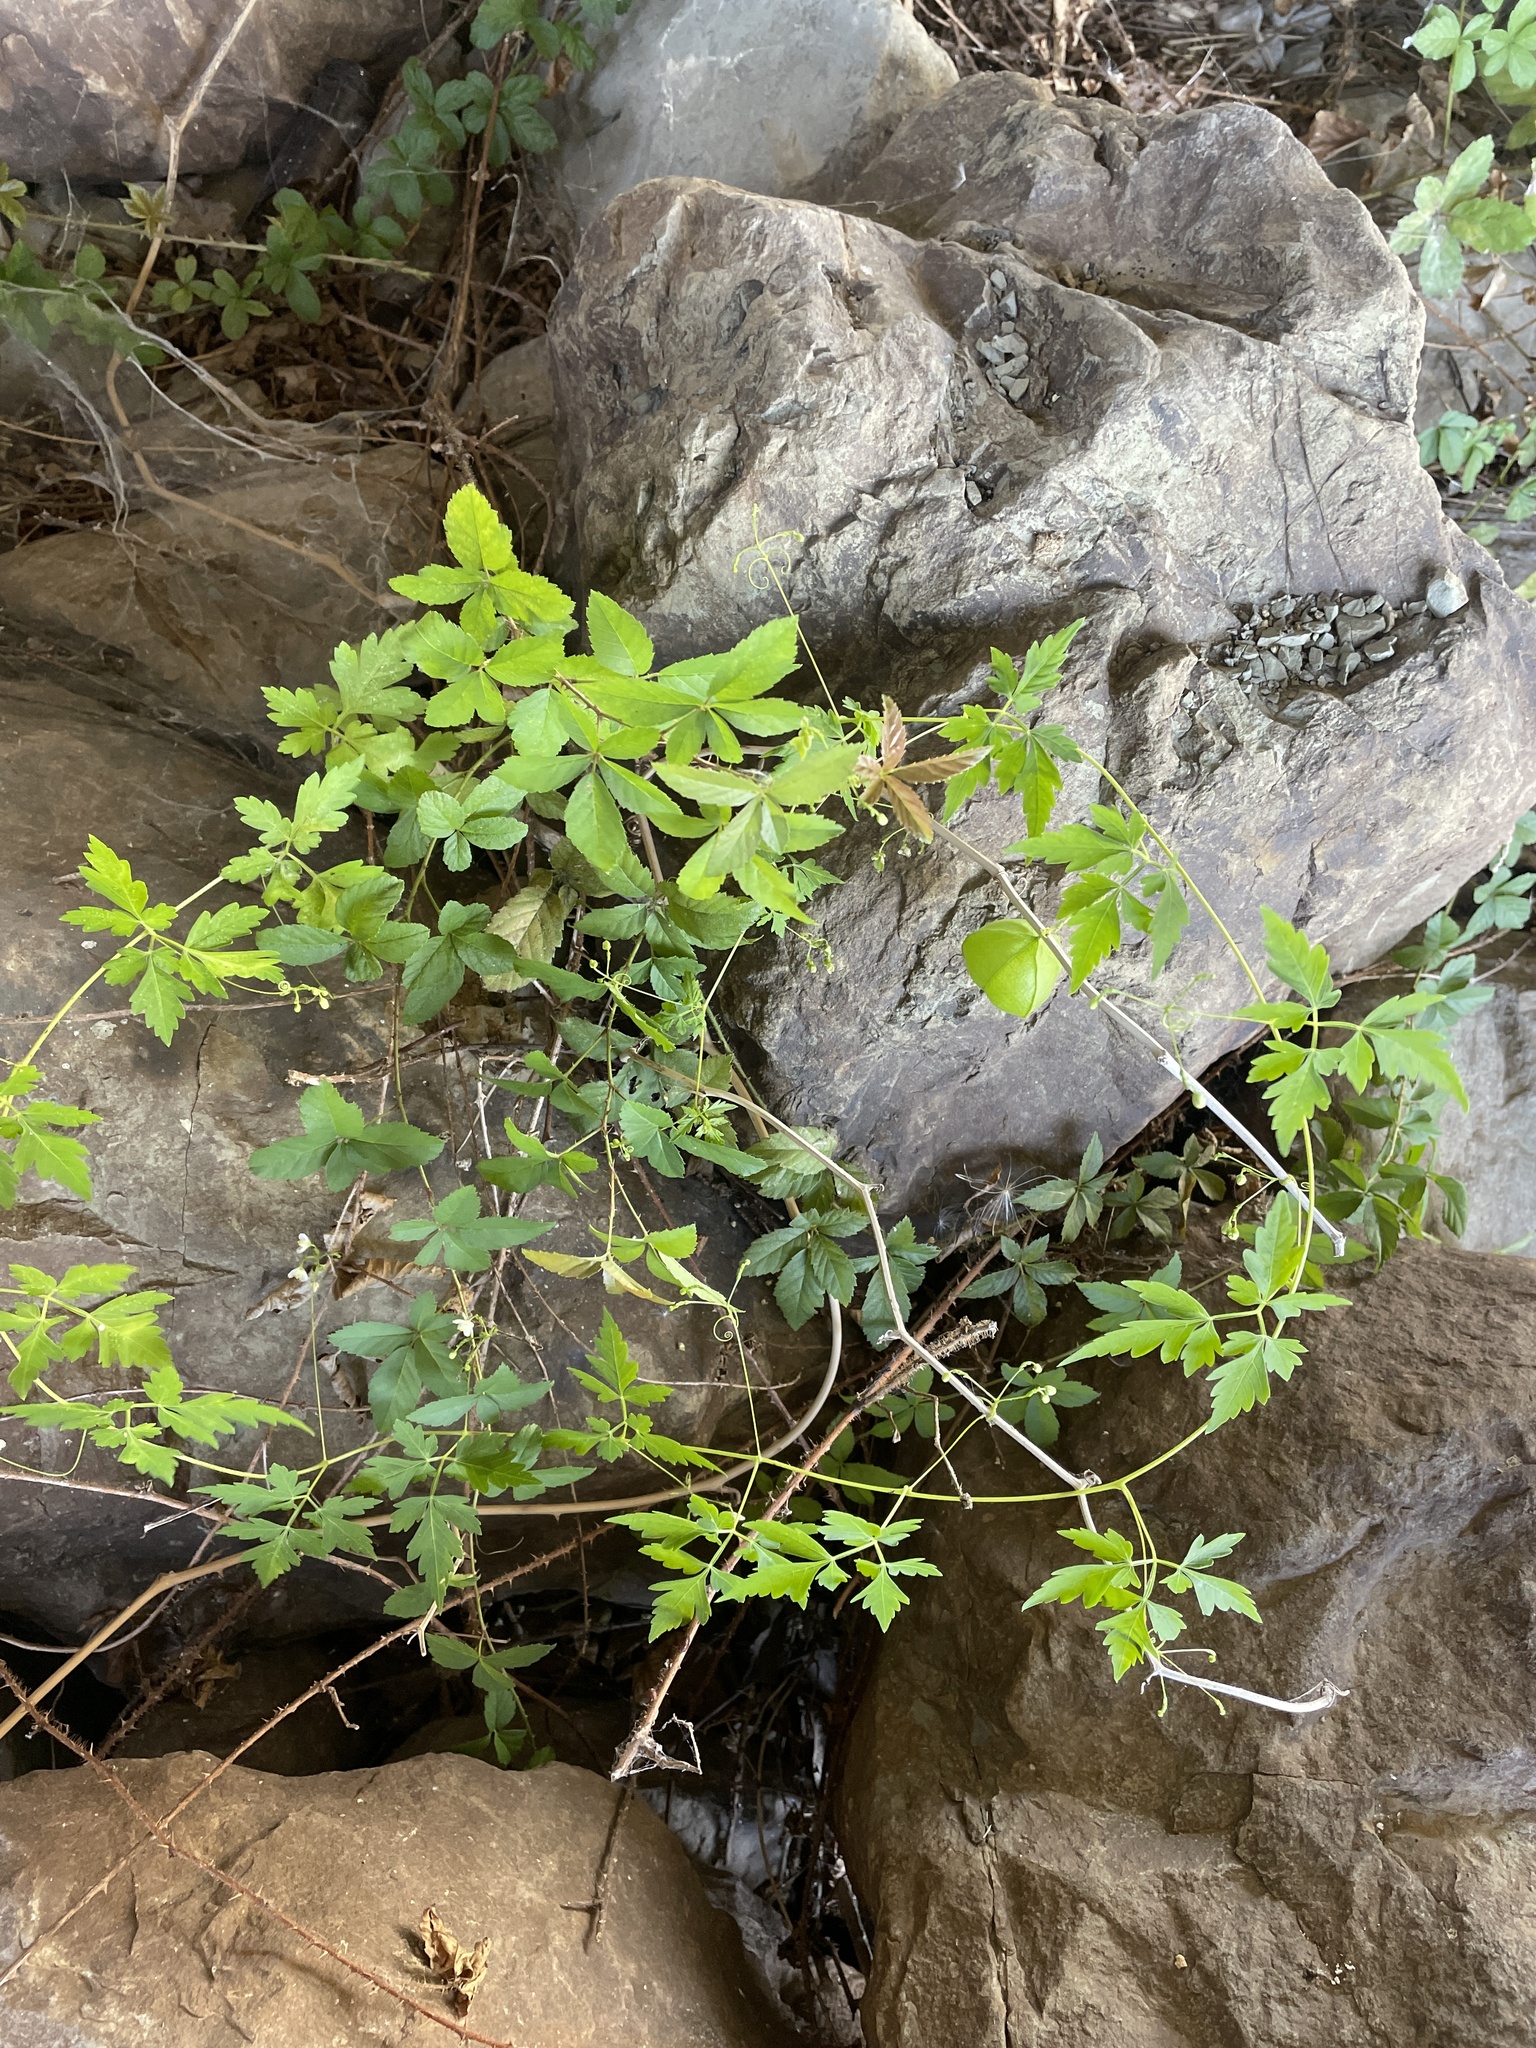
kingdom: Plantae
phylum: Tracheophyta
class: Magnoliopsida
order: Sapindales
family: Sapindaceae
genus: Cardiospermum
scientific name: Cardiospermum halicacabum
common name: Balloon vine
